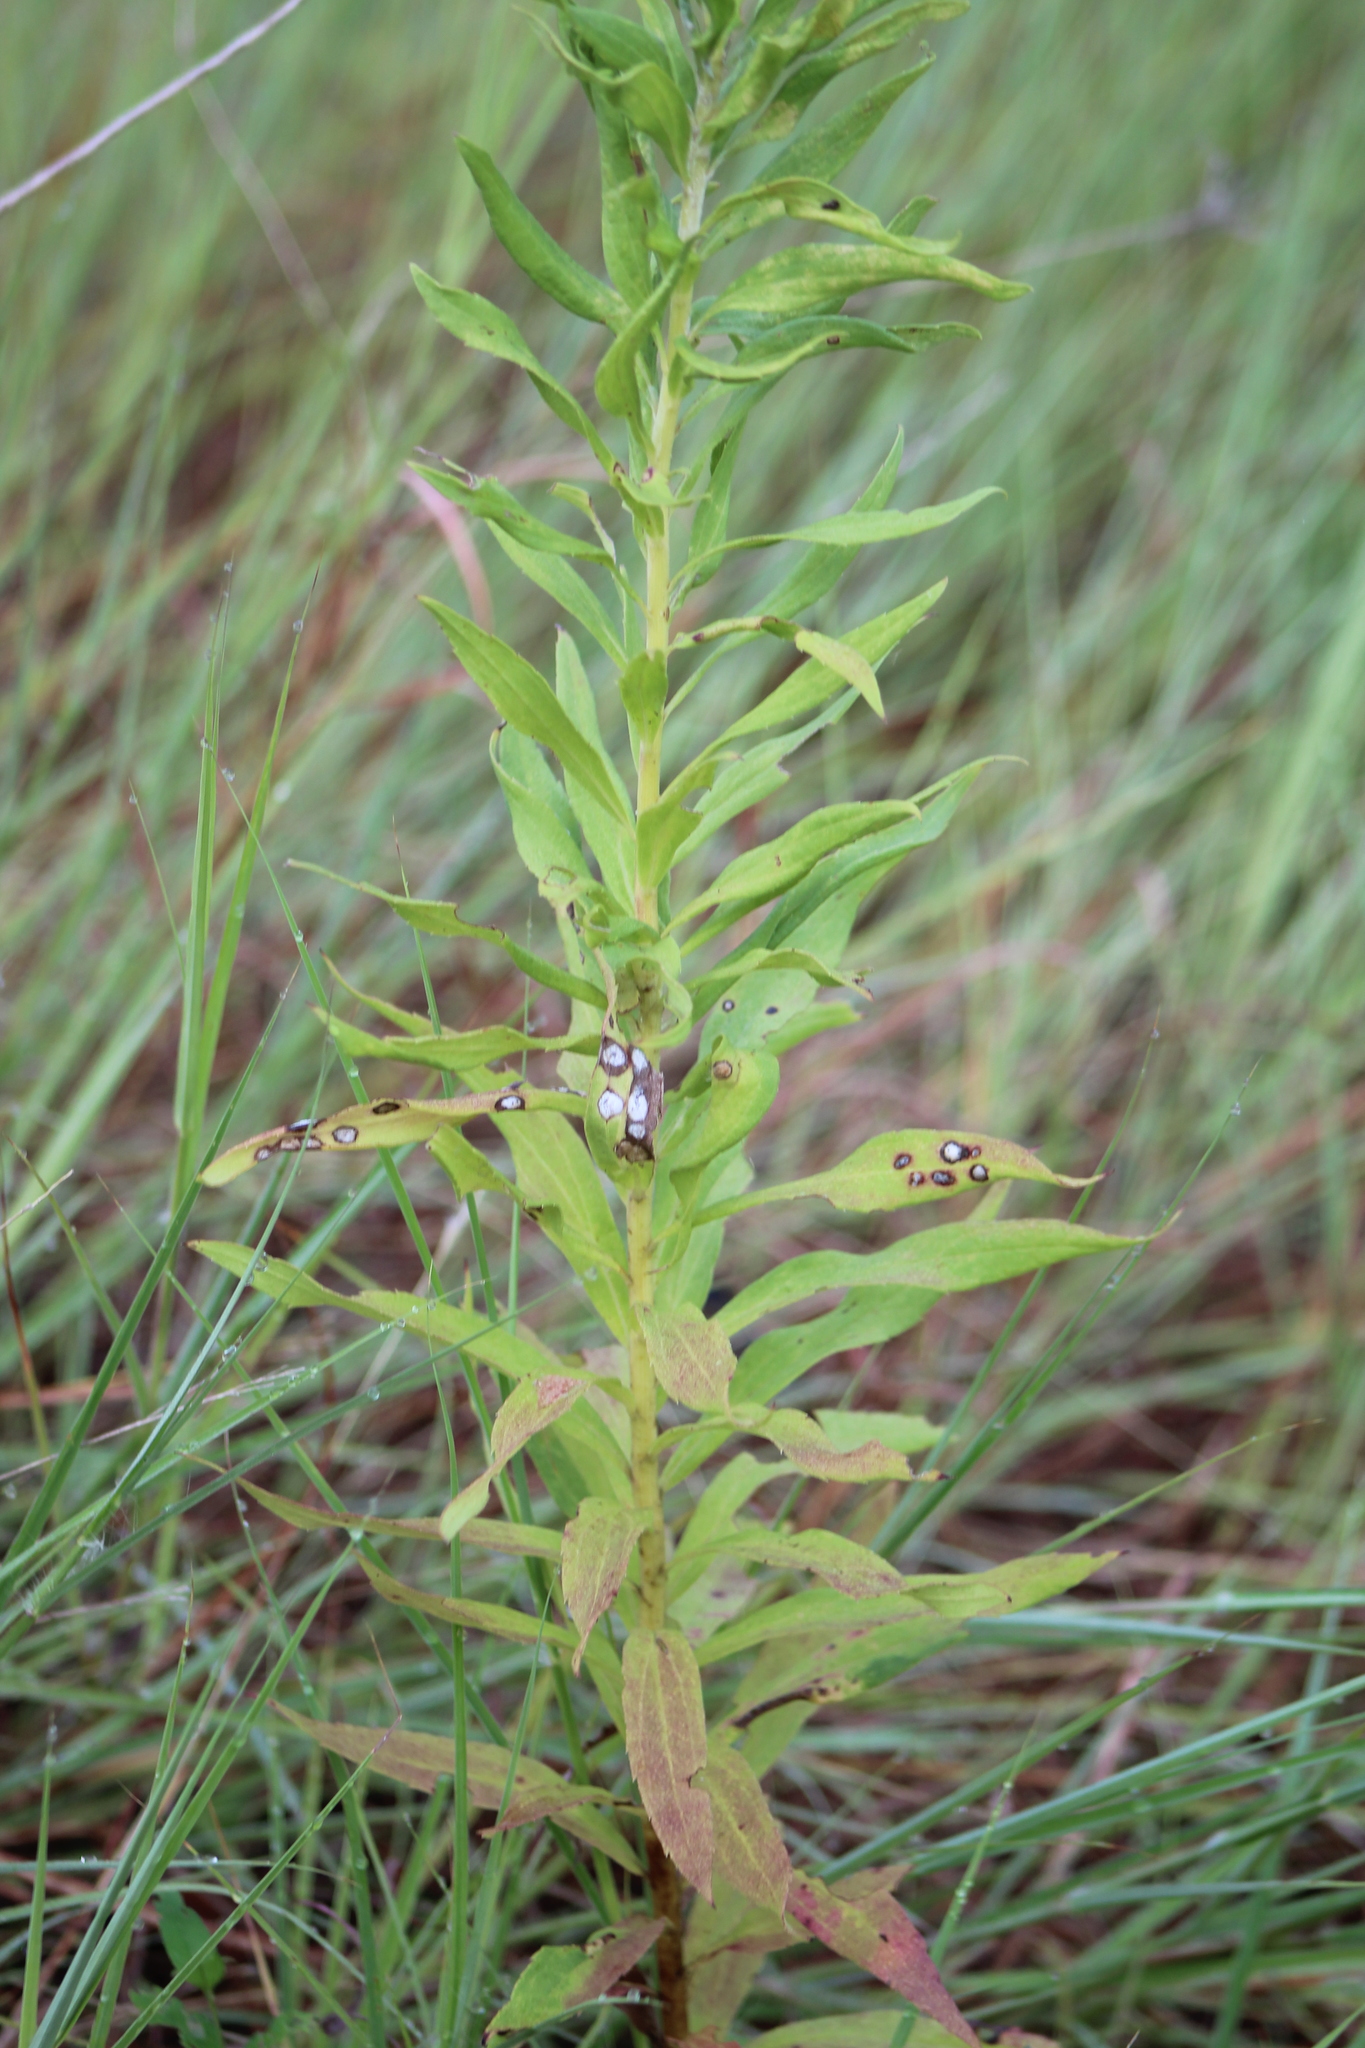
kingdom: Animalia
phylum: Arthropoda
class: Insecta
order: Diptera
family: Cecidomyiidae
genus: Asteromyia
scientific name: Asteromyia carbonifera
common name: Carbonifera goldenrod gall midge
